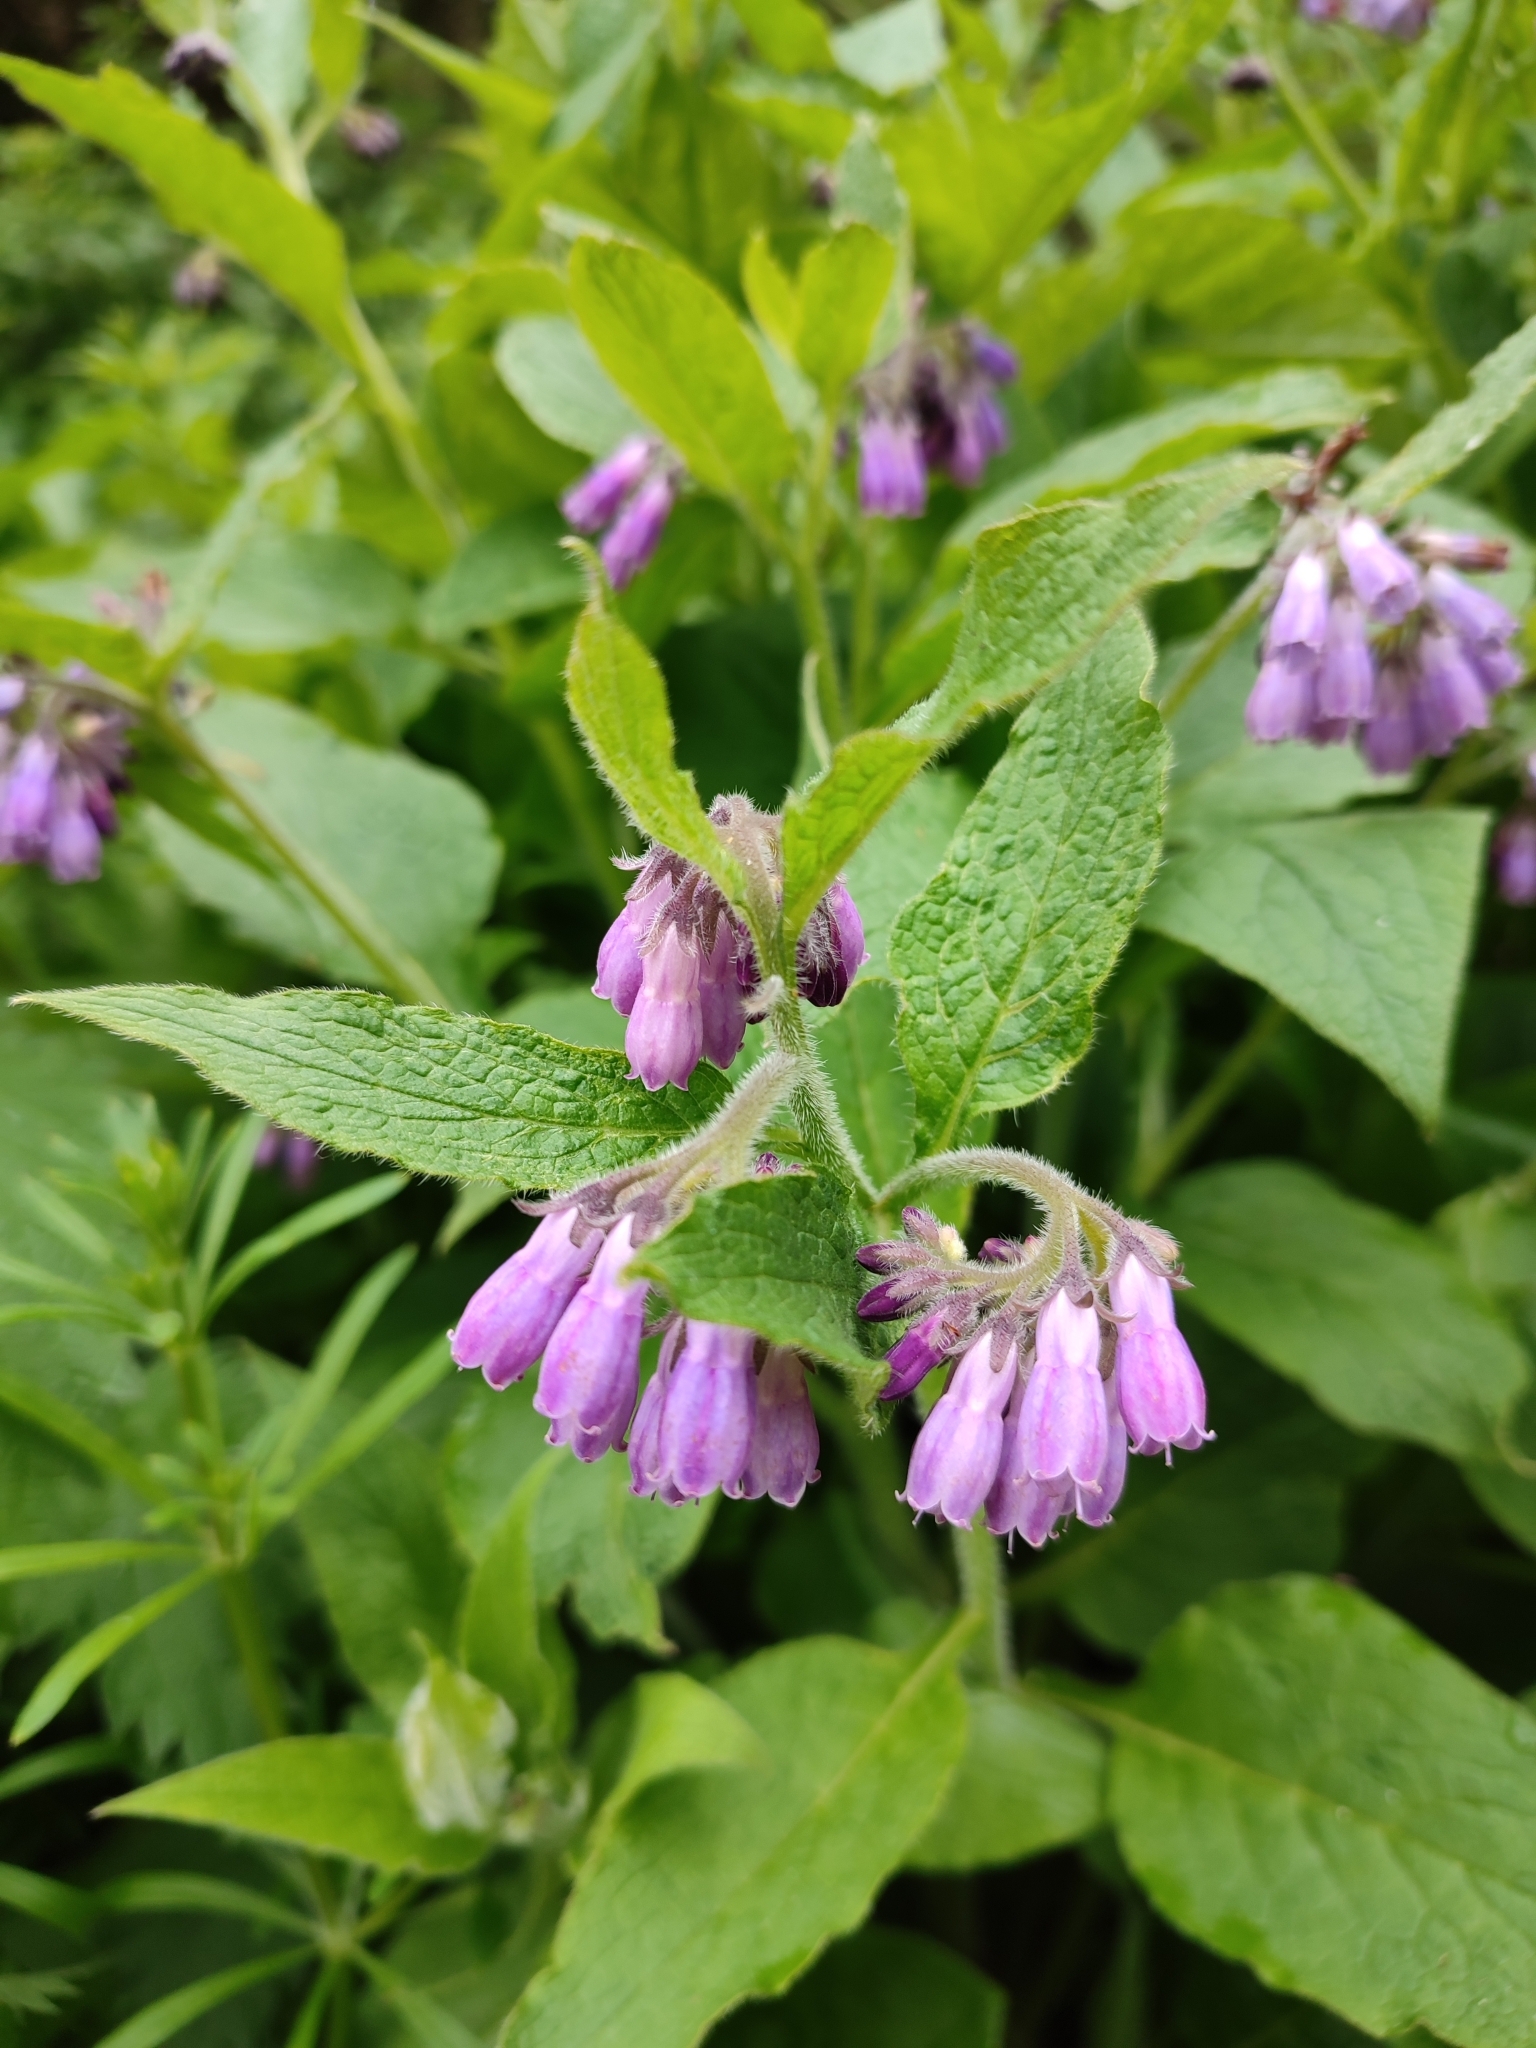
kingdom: Plantae
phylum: Tracheophyta
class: Magnoliopsida
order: Boraginales
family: Boraginaceae
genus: Symphytum
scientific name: Symphytum officinale
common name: Common comfrey
